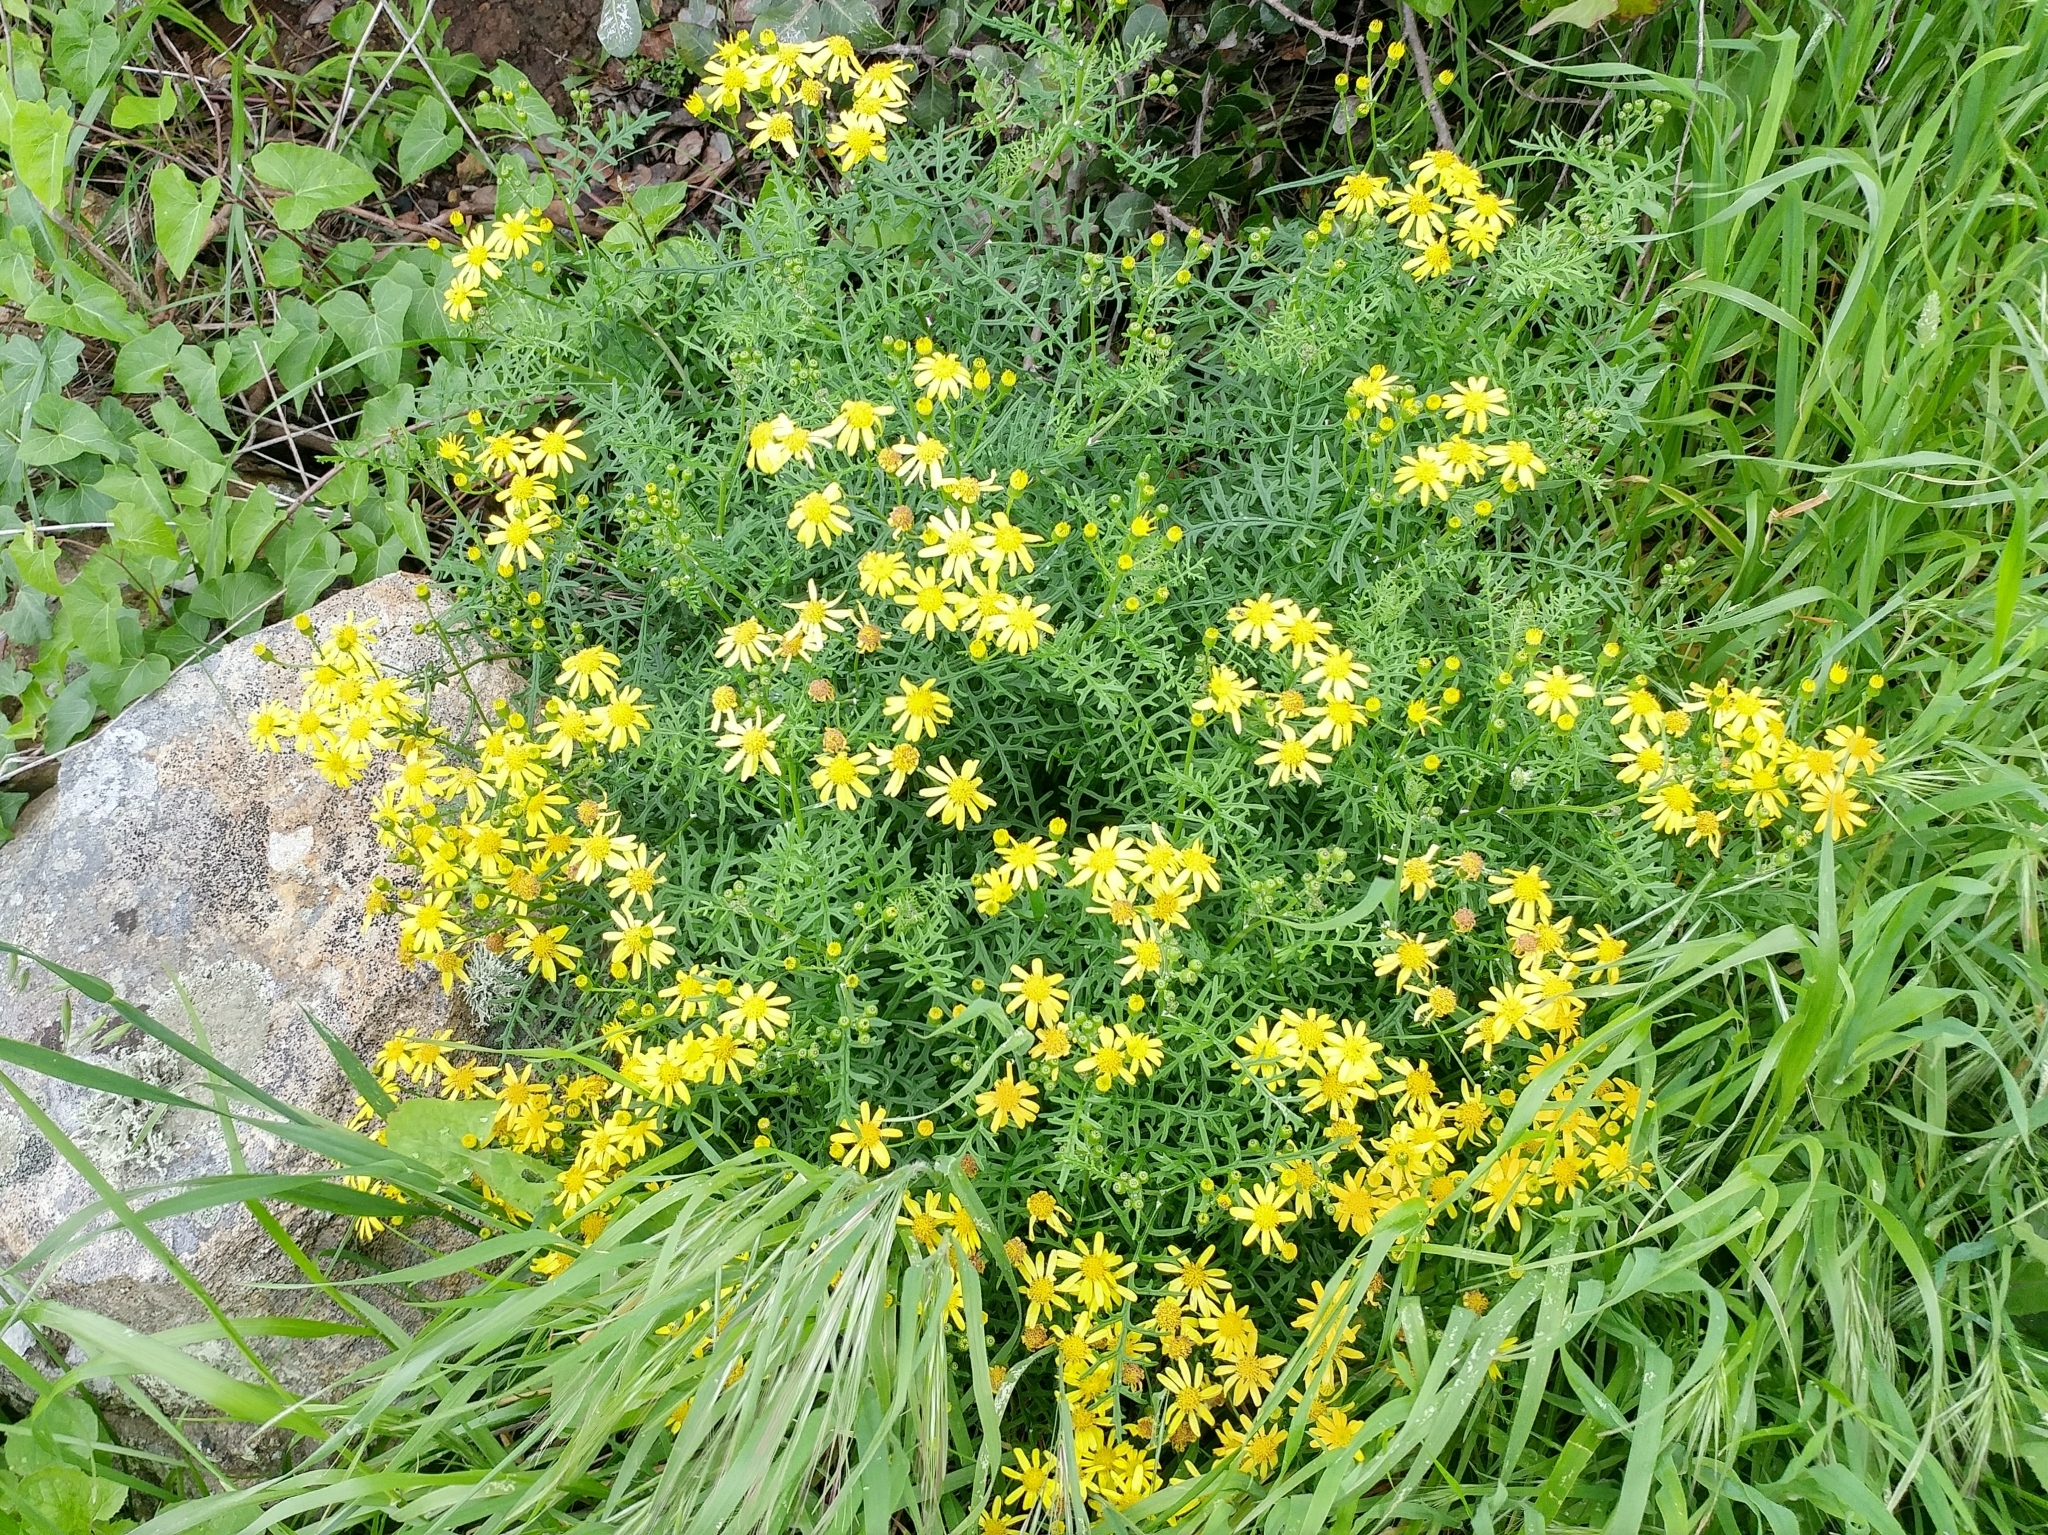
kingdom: Plantae
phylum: Tracheophyta
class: Magnoliopsida
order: Asterales
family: Asteraceae
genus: Senecio
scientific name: Senecio lyonii
